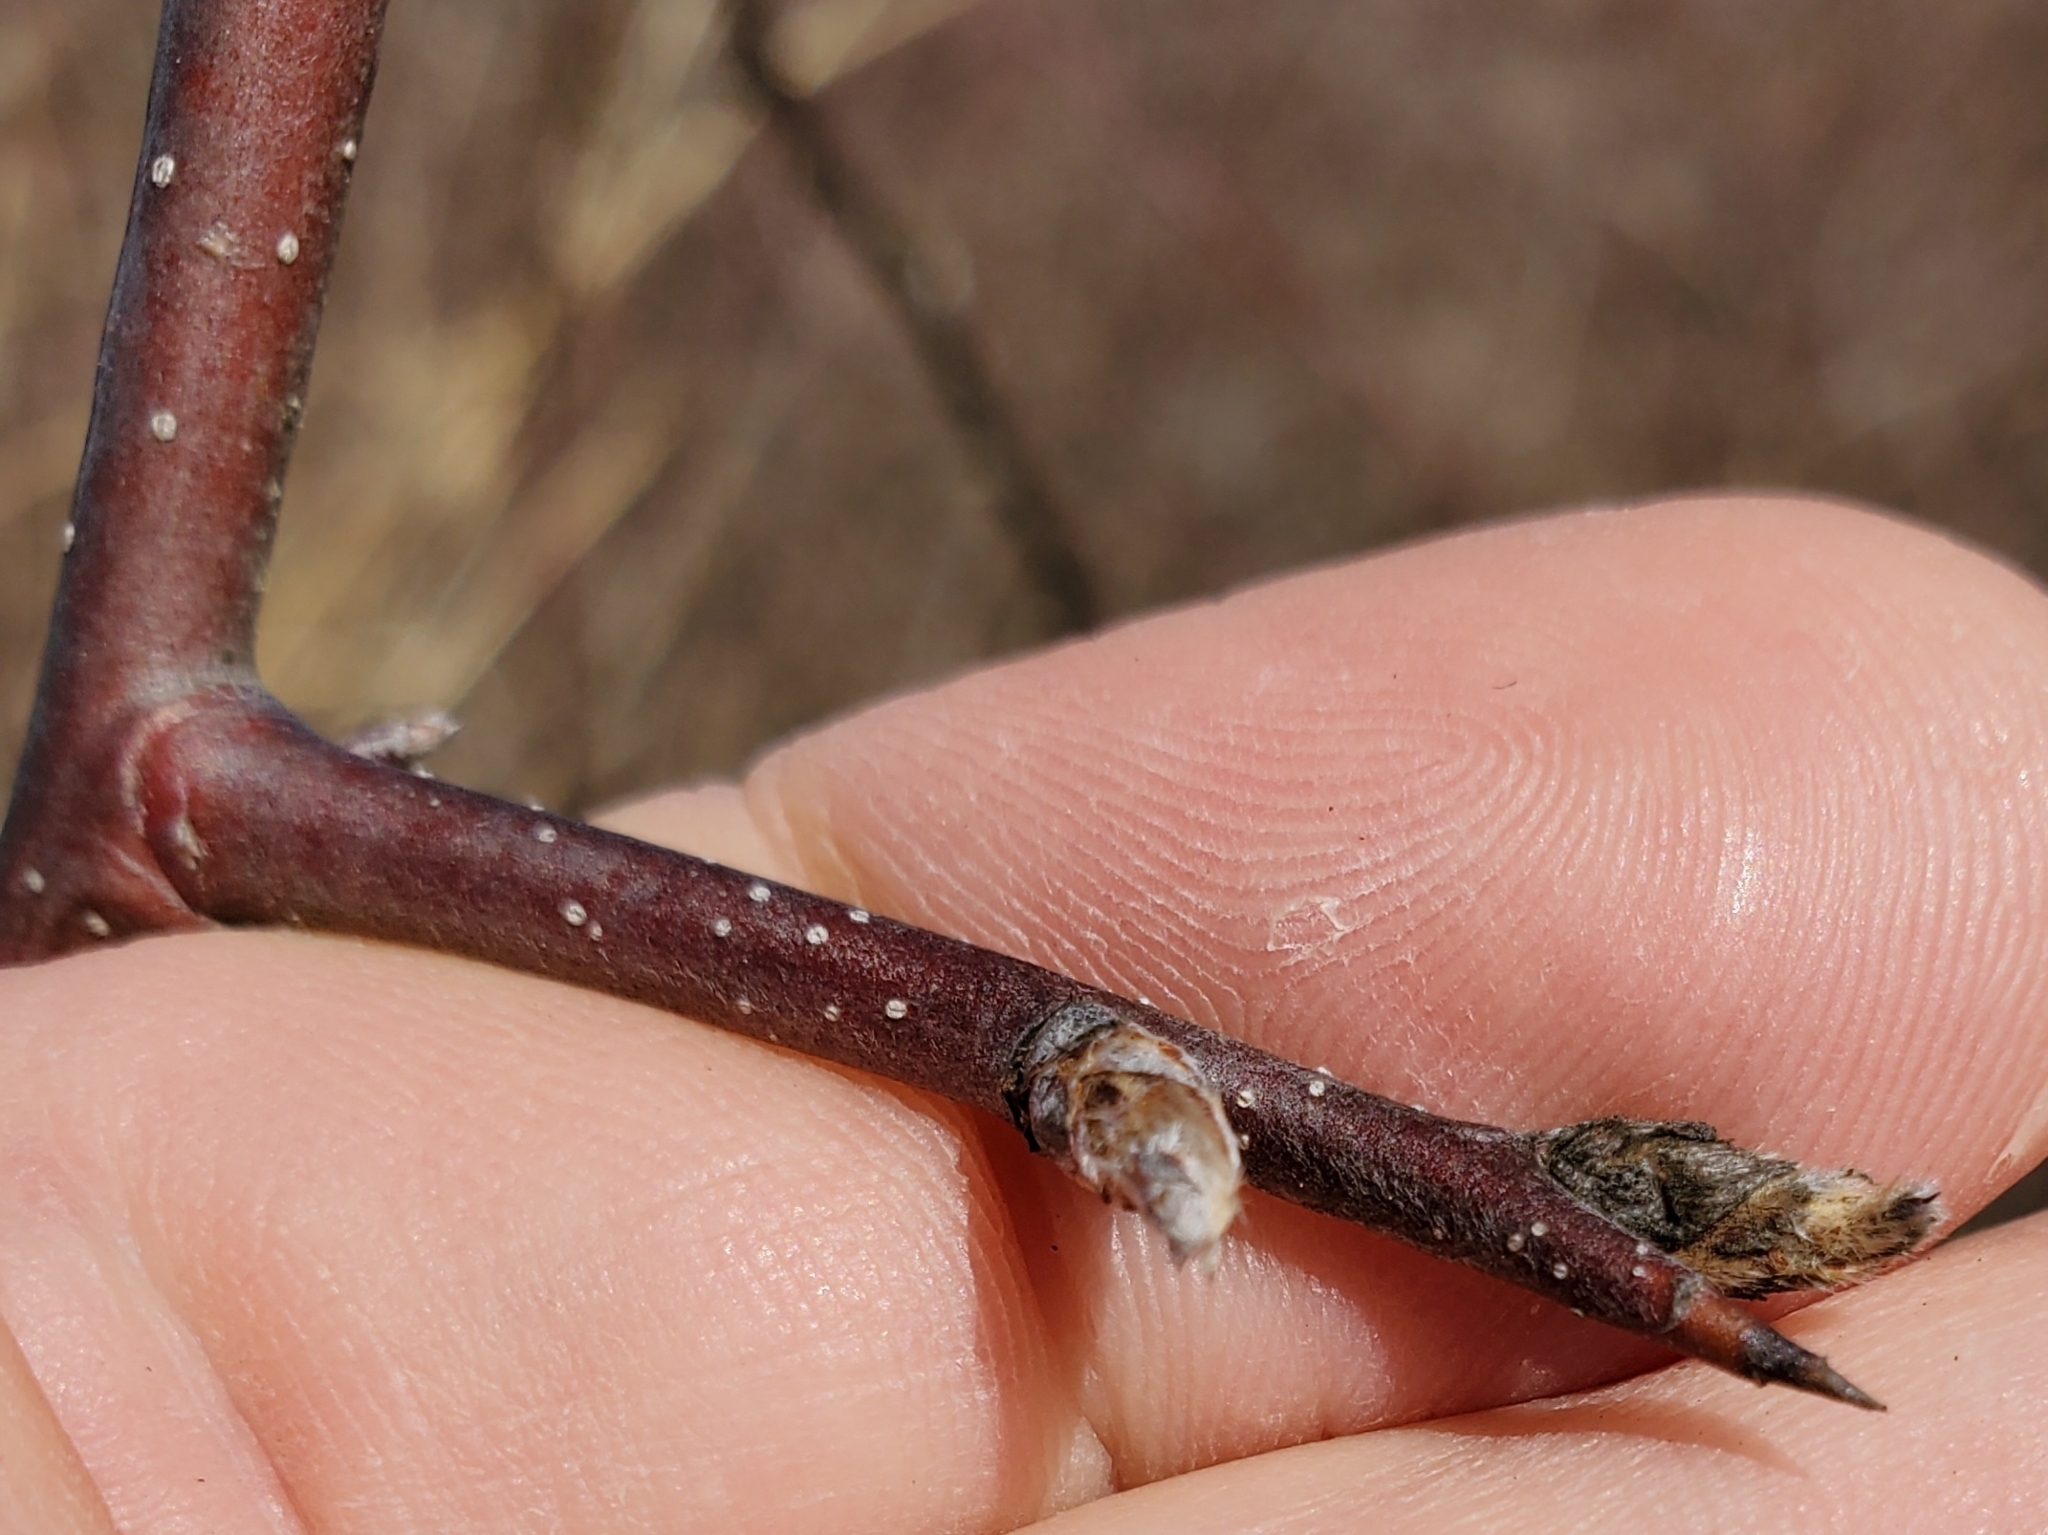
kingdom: Plantae
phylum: Tracheophyta
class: Magnoliopsida
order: Rosales
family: Rosaceae
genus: Pyrus
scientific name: Pyrus calleryana
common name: Callery pear
